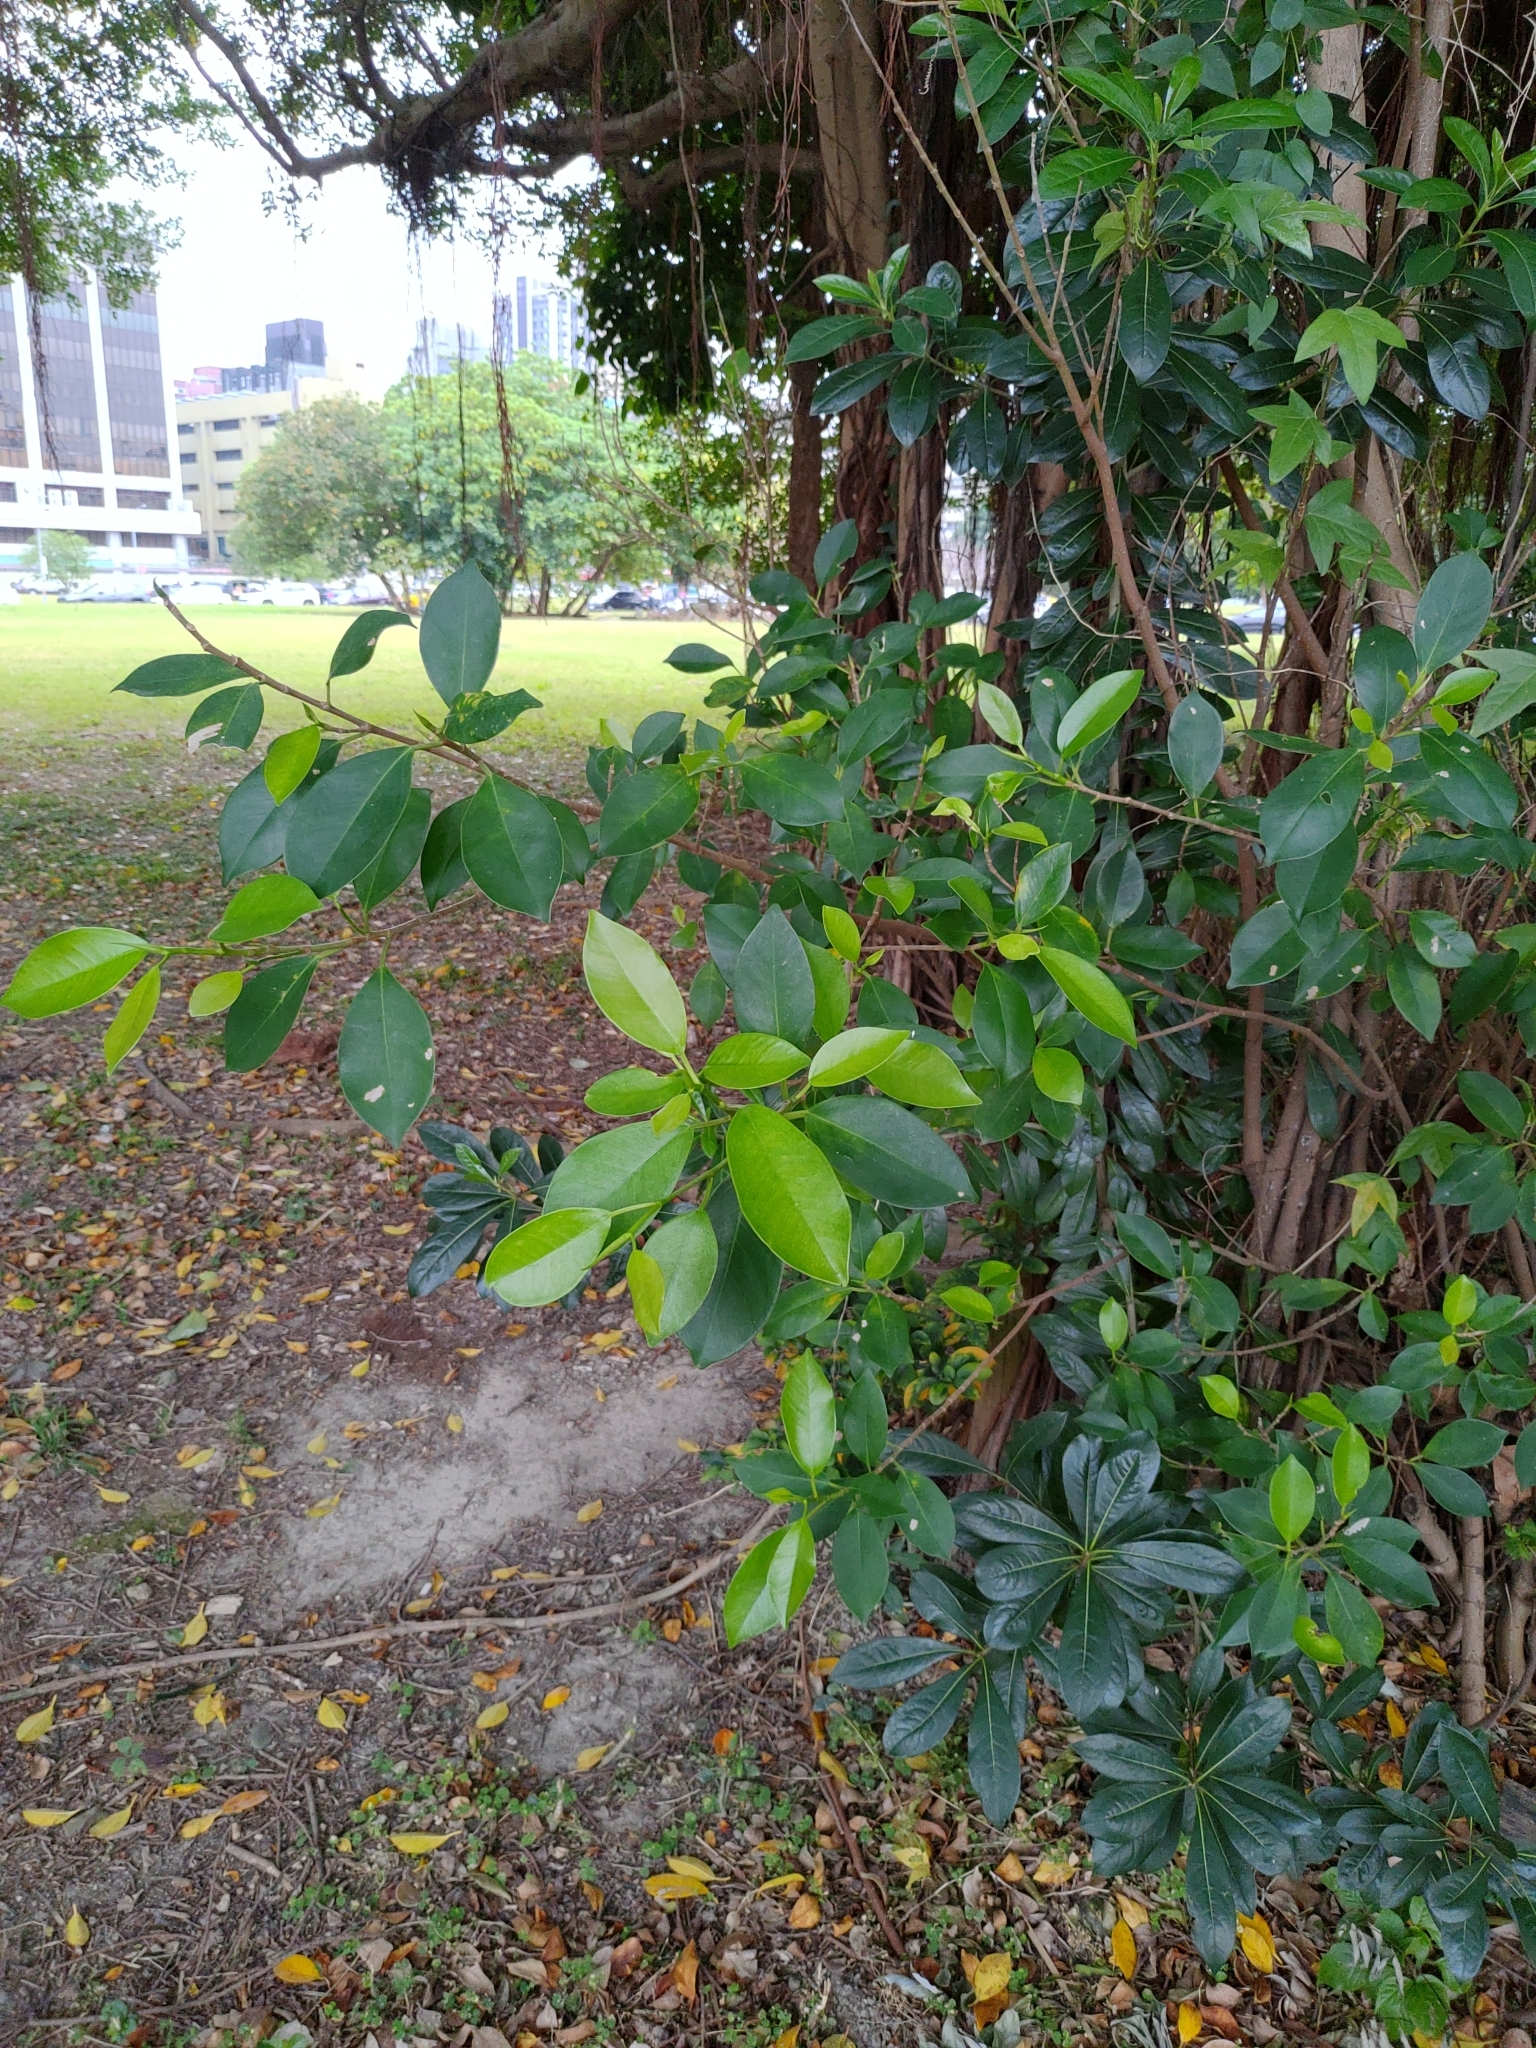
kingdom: Plantae
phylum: Tracheophyta
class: Magnoliopsida
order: Rosales
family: Moraceae
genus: Ficus
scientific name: Ficus microcarpa
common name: Chinese banyan
